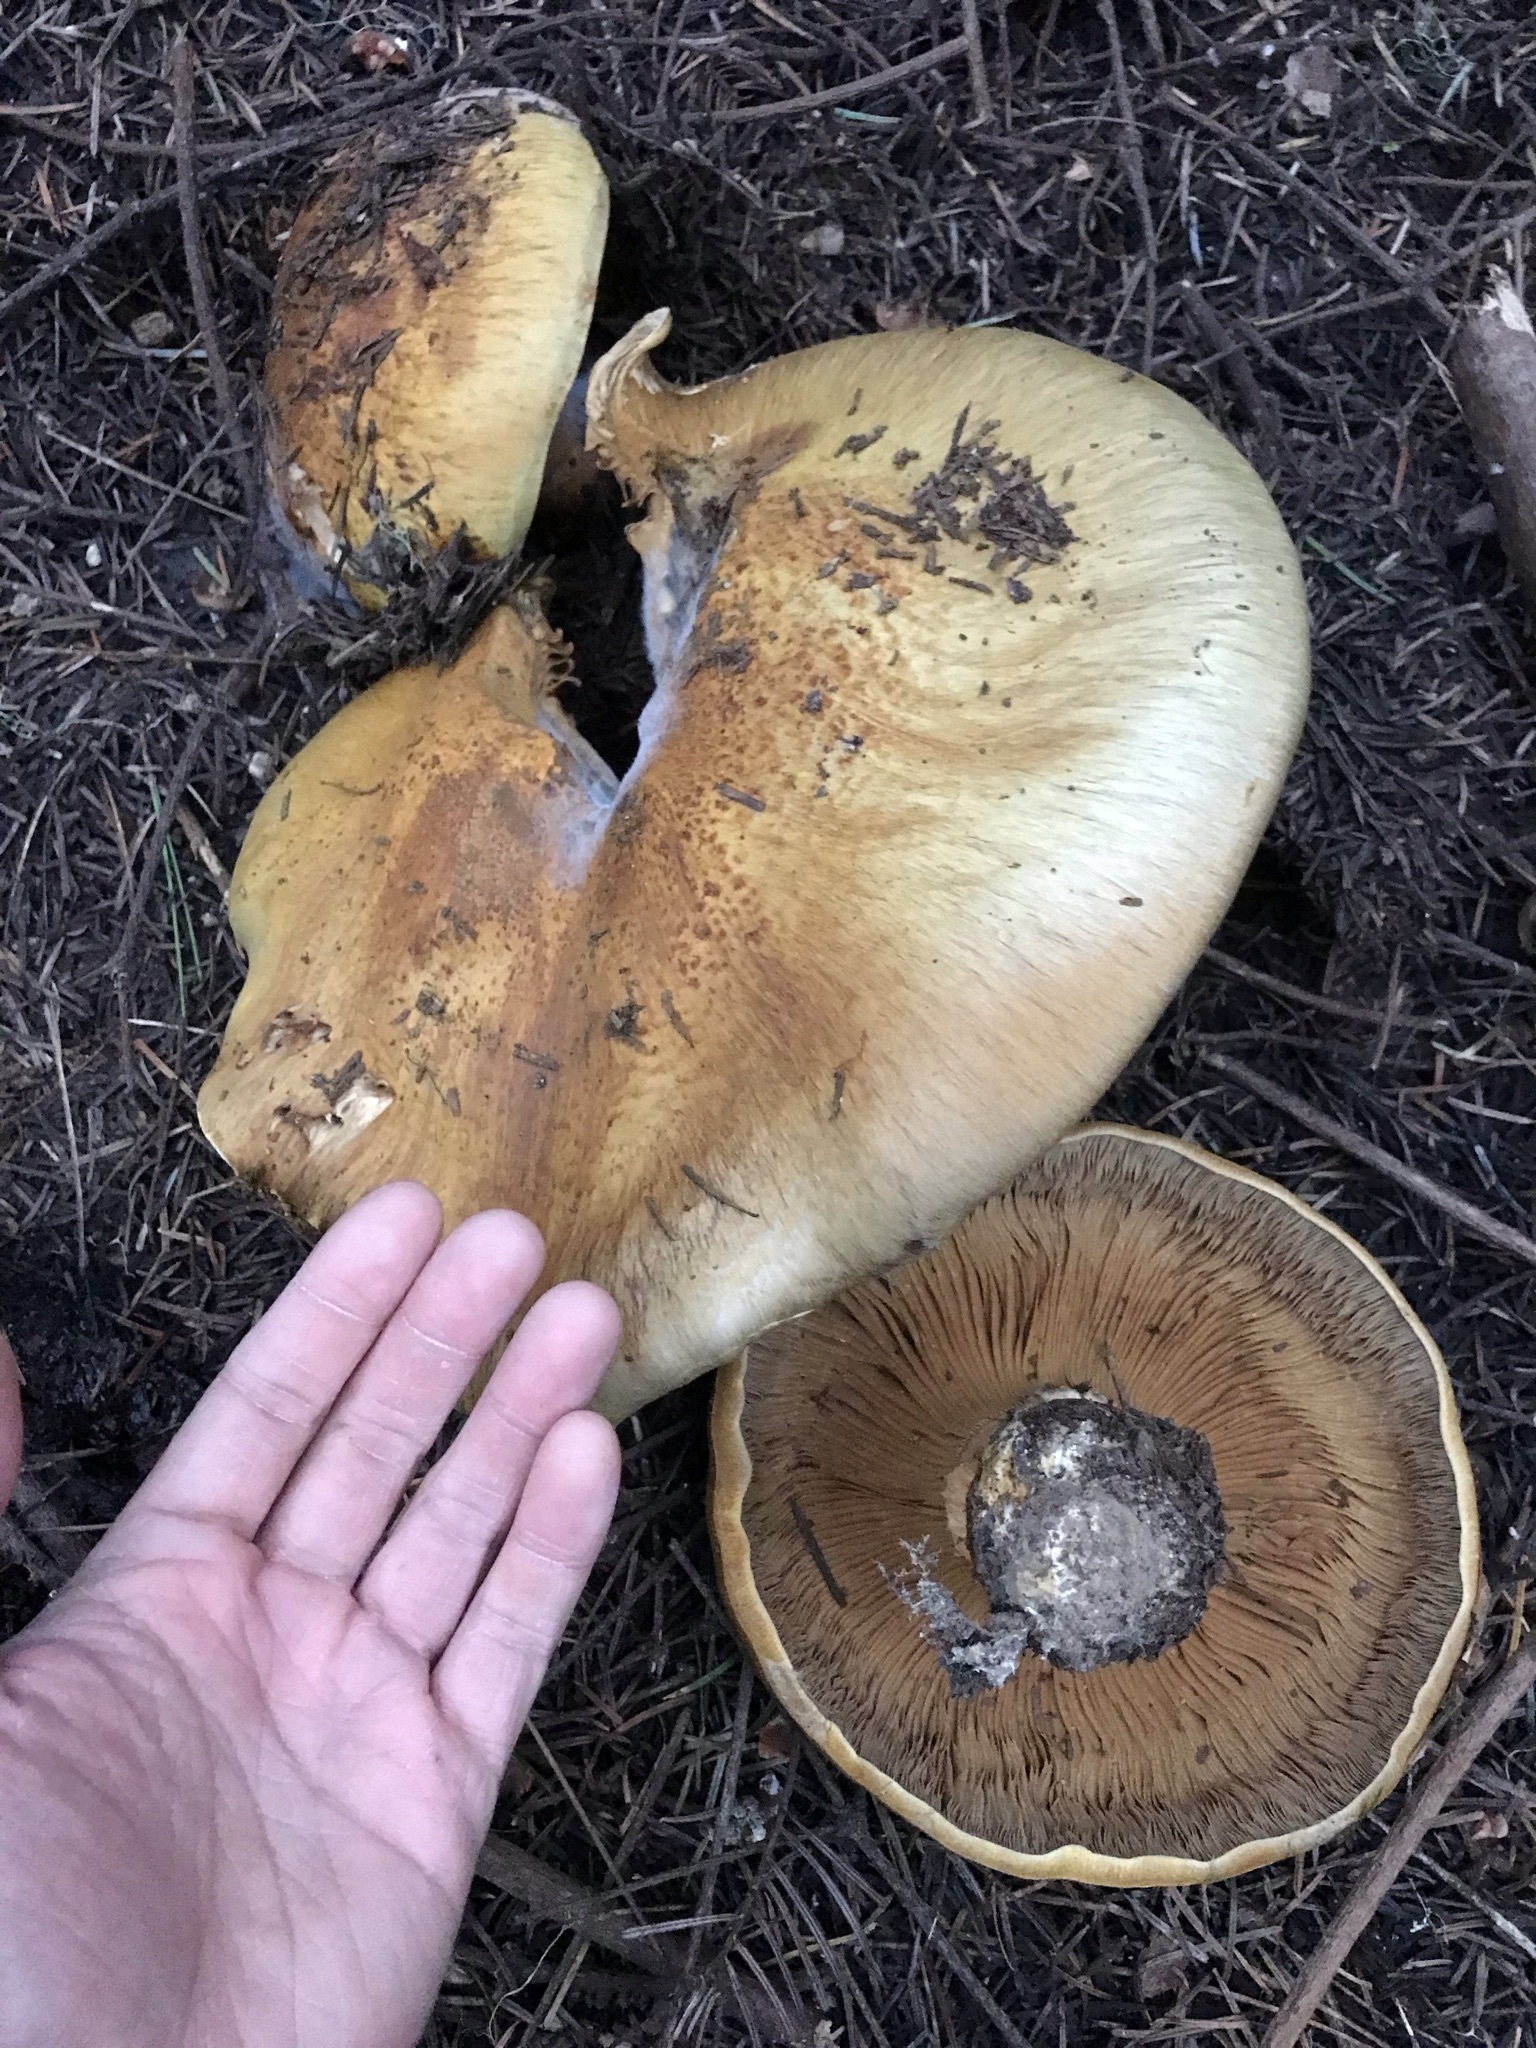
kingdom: Fungi
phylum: Basidiomycota
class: Agaricomycetes
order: Agaricales
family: Cortinariaceae
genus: Phlegmacium
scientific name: Phlegmacium ponderosum
